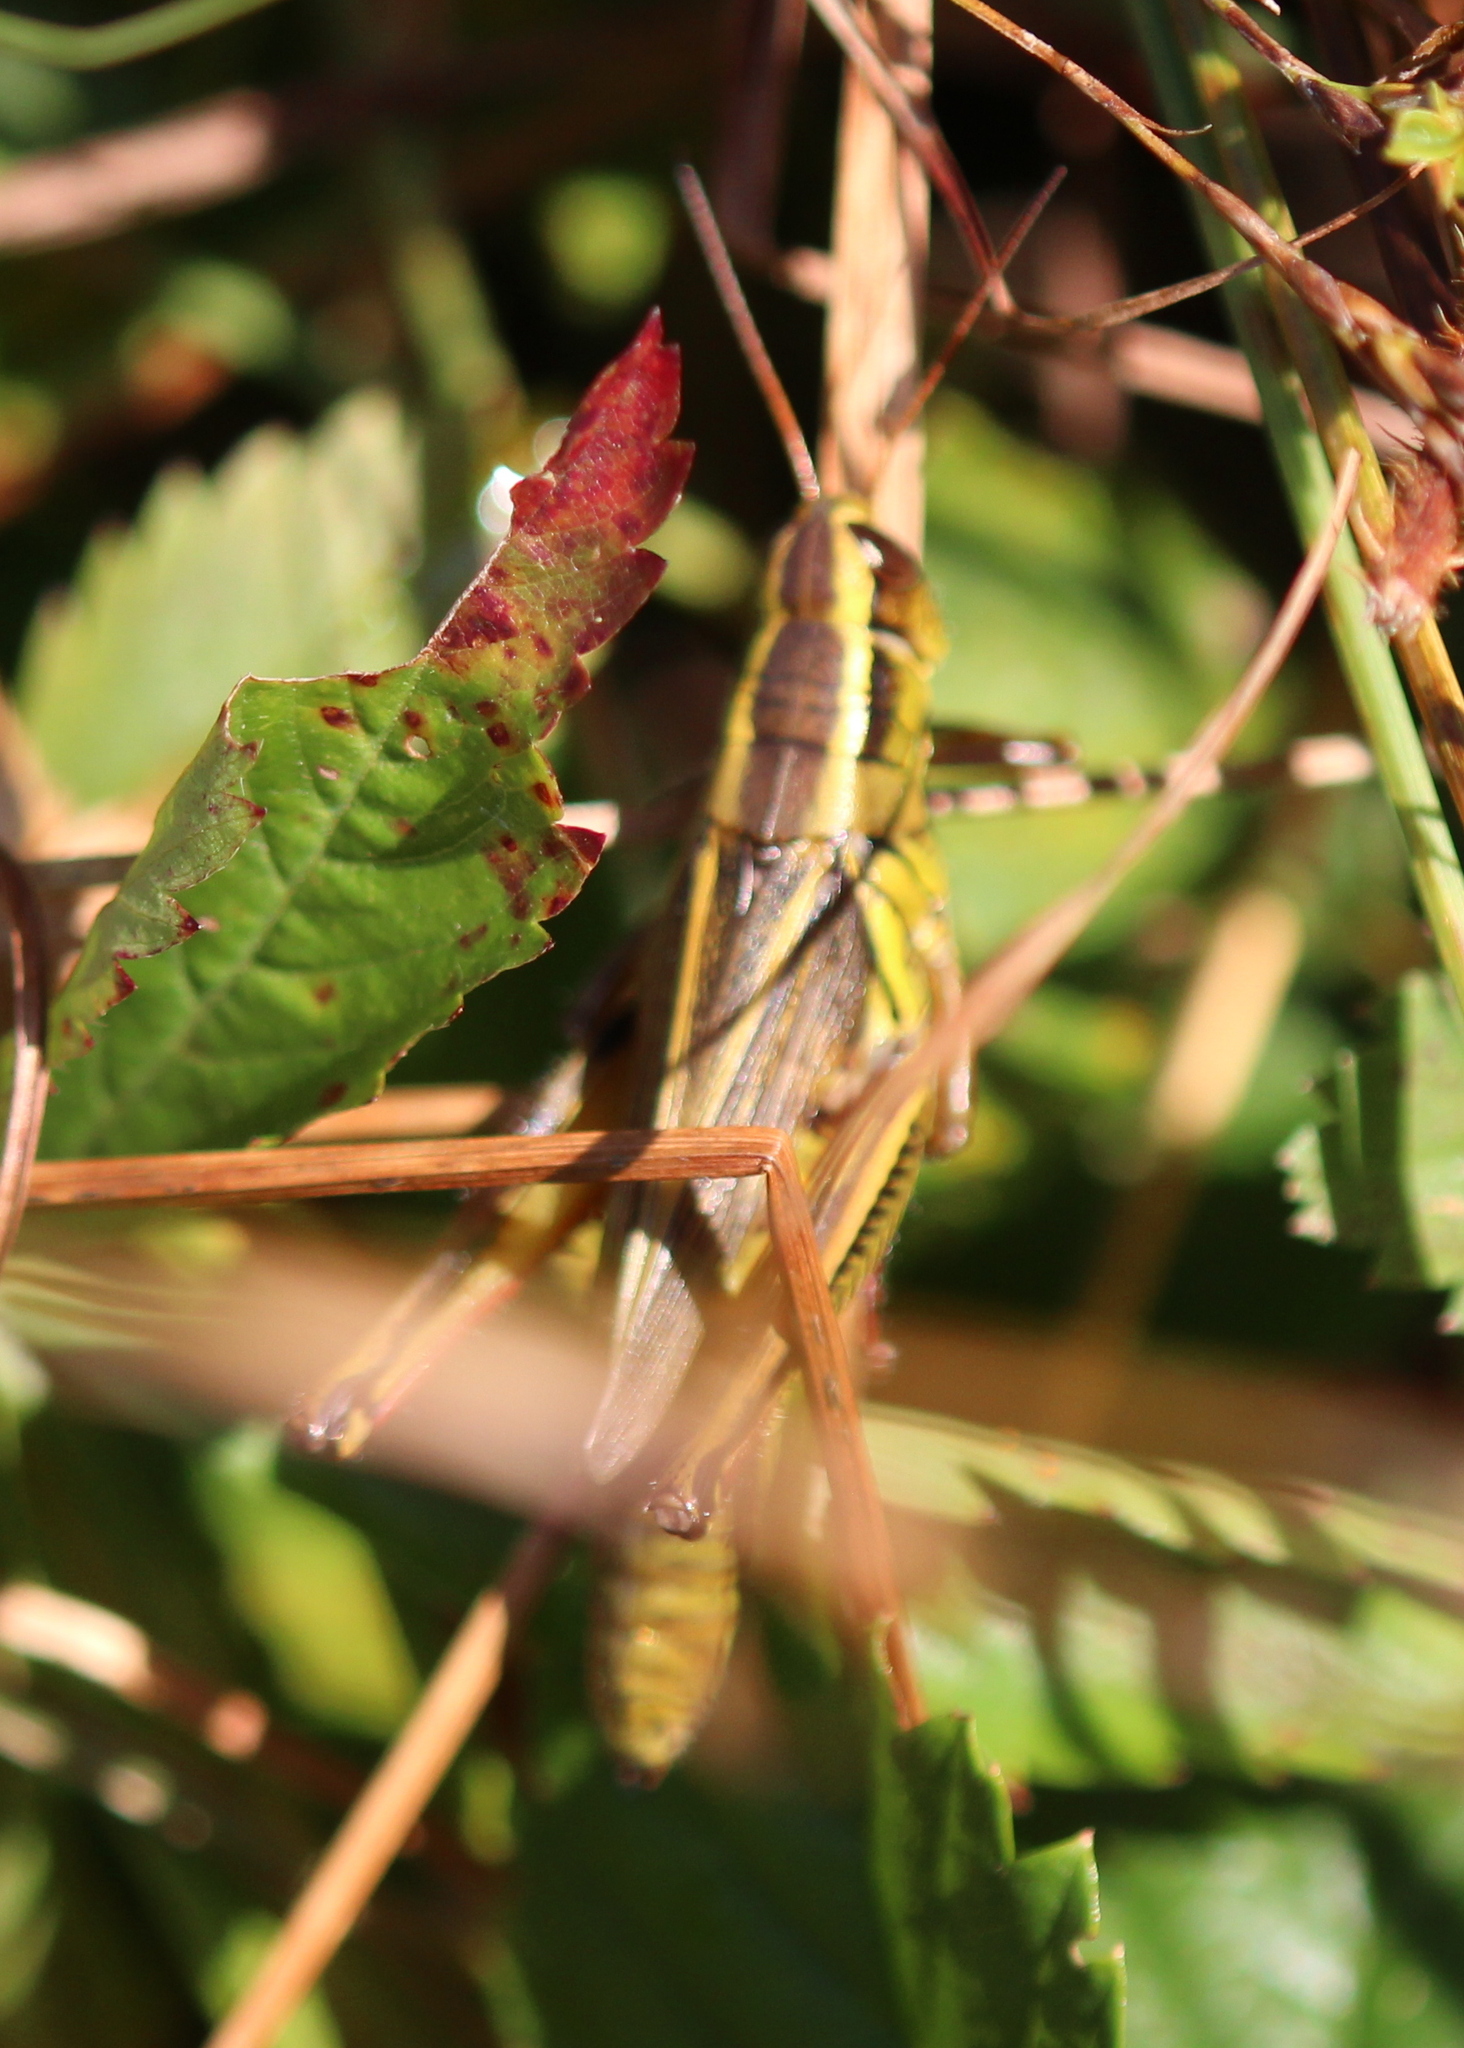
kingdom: Animalia
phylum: Arthropoda
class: Insecta
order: Orthoptera
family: Acrididae
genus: Melanoplus
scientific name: Melanoplus bivittatus
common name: Two-striped grasshopper
